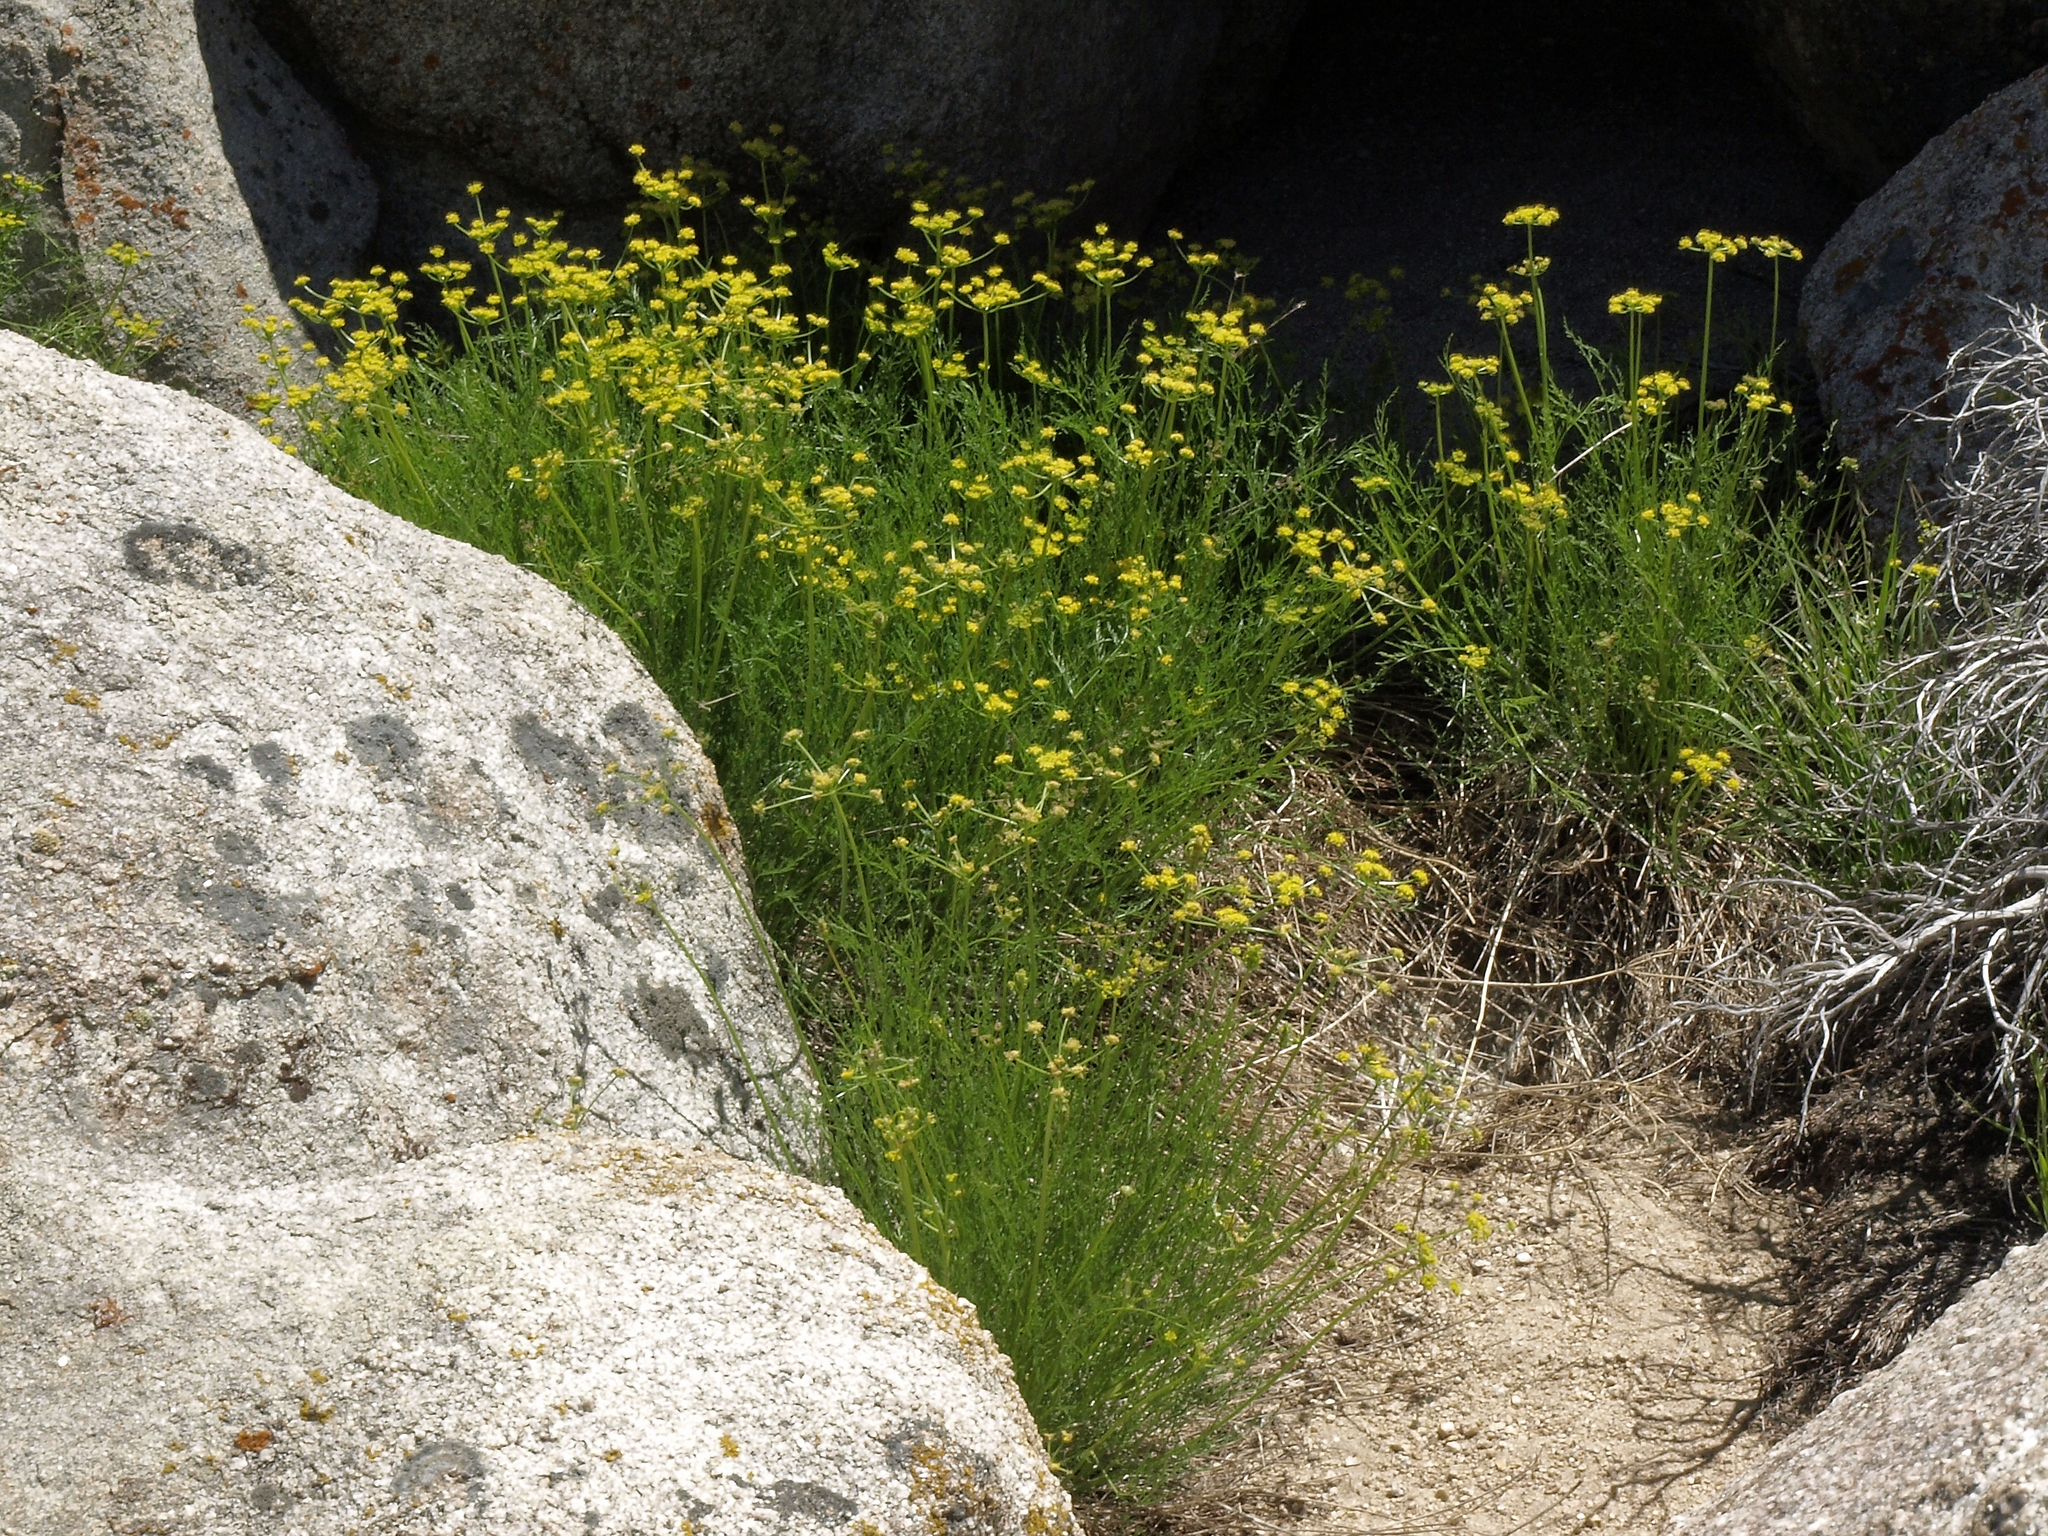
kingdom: Plantae
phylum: Tracheophyta
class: Magnoliopsida
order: Apiales
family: Apiaceae
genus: Pteryxia
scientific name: Pteryxia petraea
